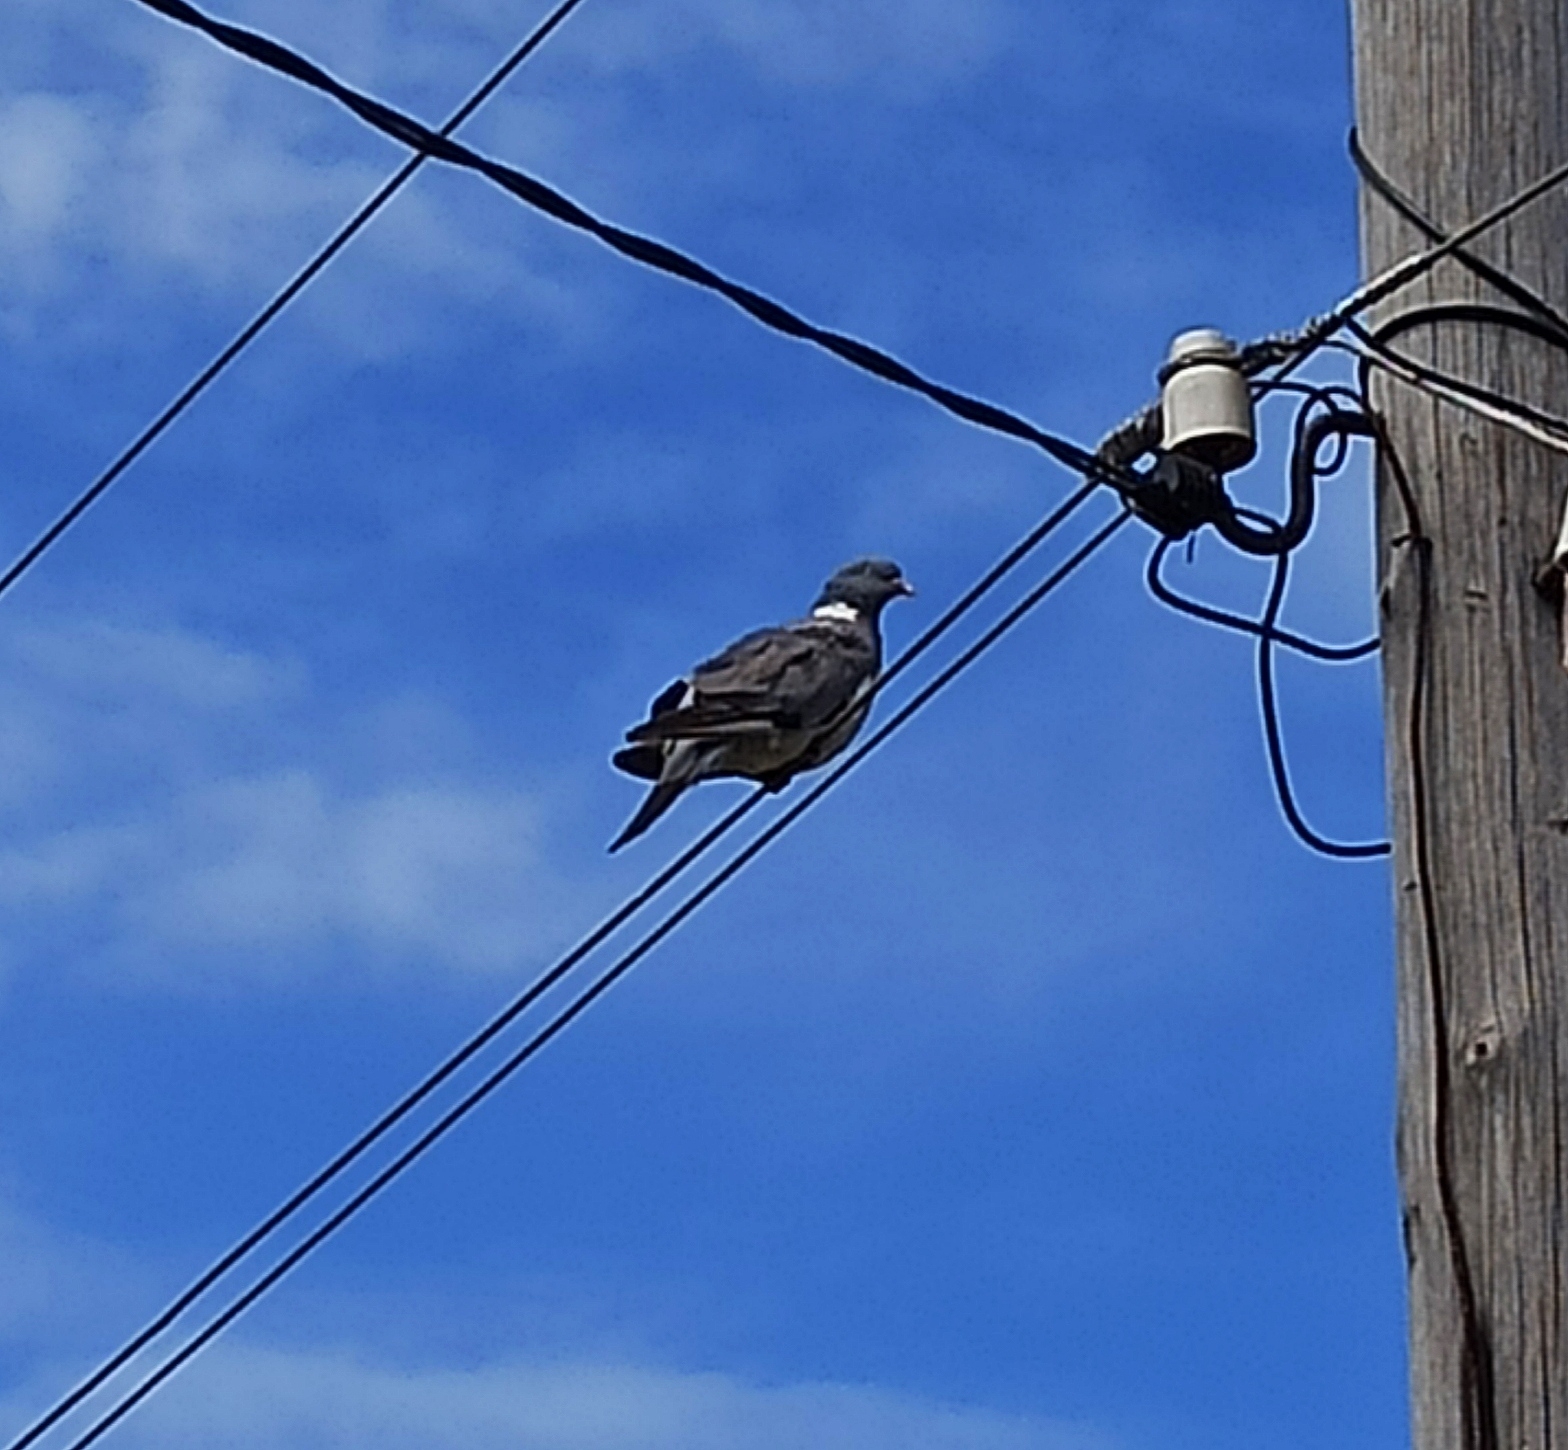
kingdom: Animalia
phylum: Chordata
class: Aves
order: Columbiformes
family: Columbidae
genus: Columba
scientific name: Columba palumbus
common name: Common wood pigeon
